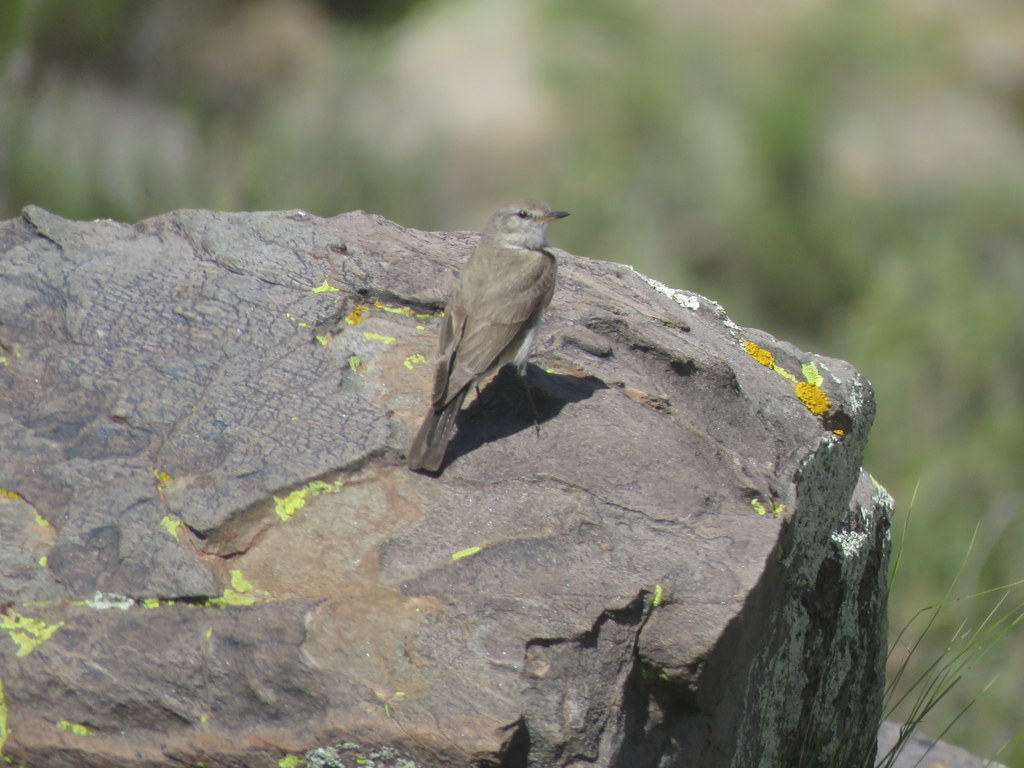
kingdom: Animalia
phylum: Chordata
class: Aves
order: Passeriformes
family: Tyrannidae
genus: Muscisaxicola
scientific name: Muscisaxicola maculirostris
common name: Spot-billed ground tyrant
